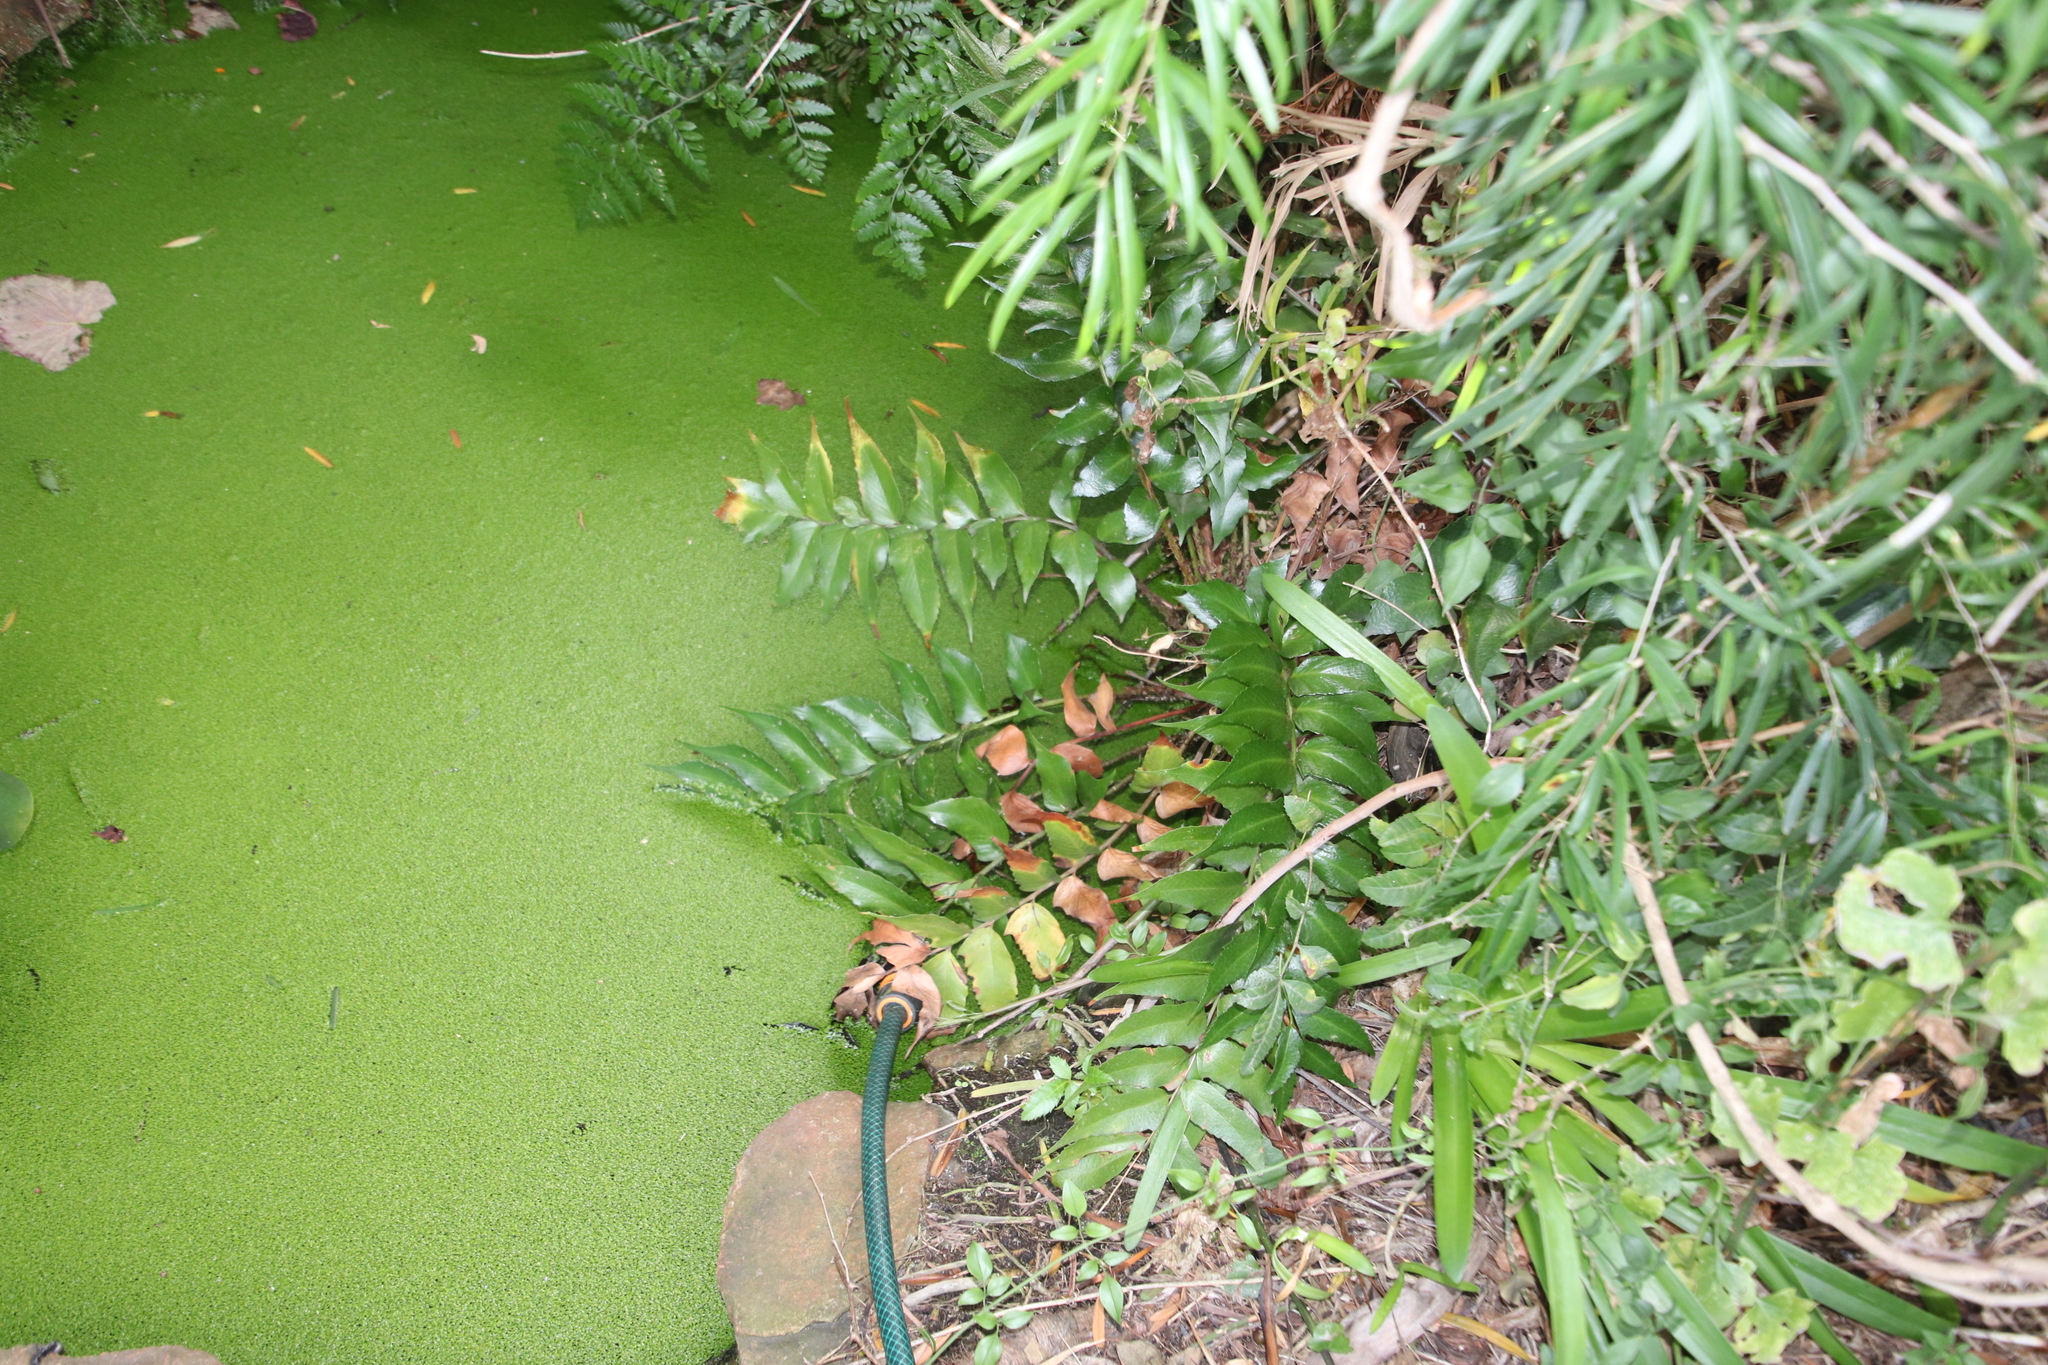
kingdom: Plantae
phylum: Tracheophyta
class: Polypodiopsida
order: Polypodiales
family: Dryopteridaceae
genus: Cyrtomium
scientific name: Cyrtomium falcatum
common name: House holly-fern
